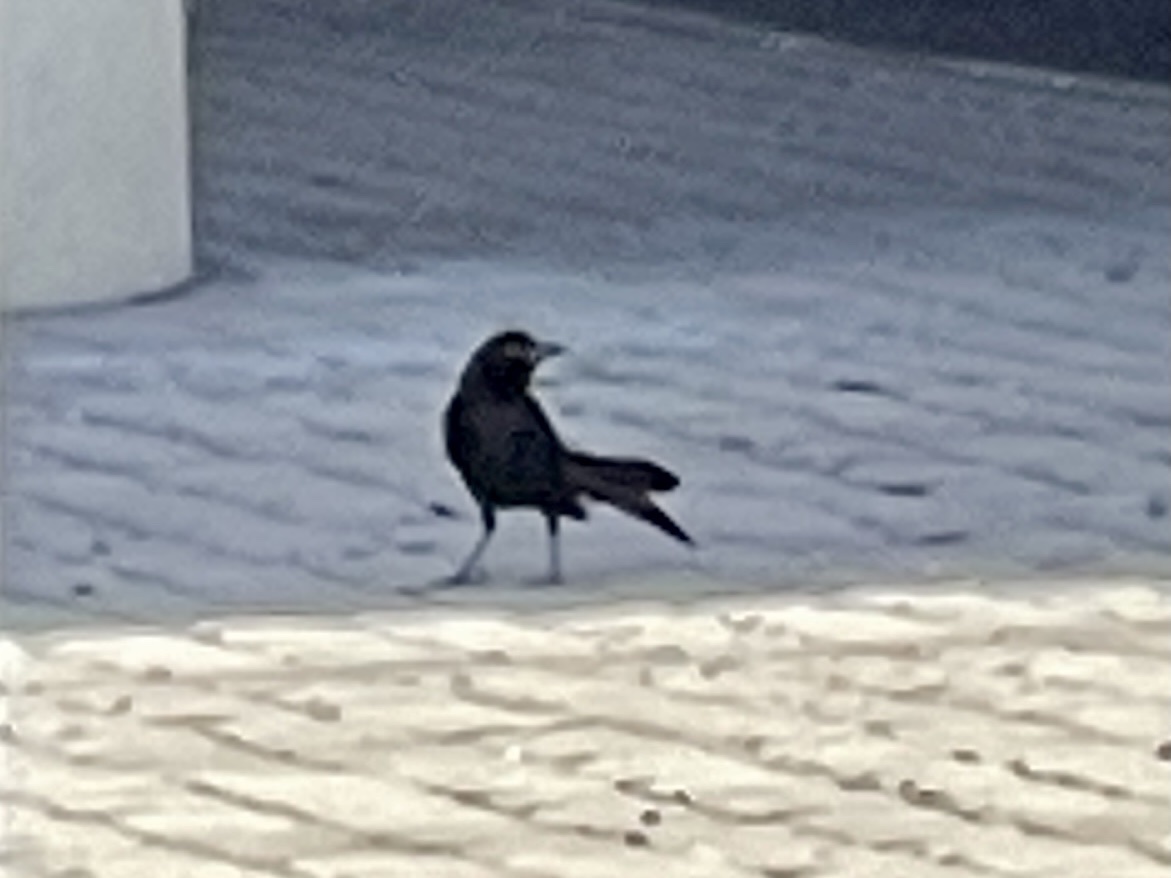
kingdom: Animalia
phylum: Chordata
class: Aves
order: Passeriformes
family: Icteridae
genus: Quiscalus
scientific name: Quiscalus mexicanus
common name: Great-tailed grackle
